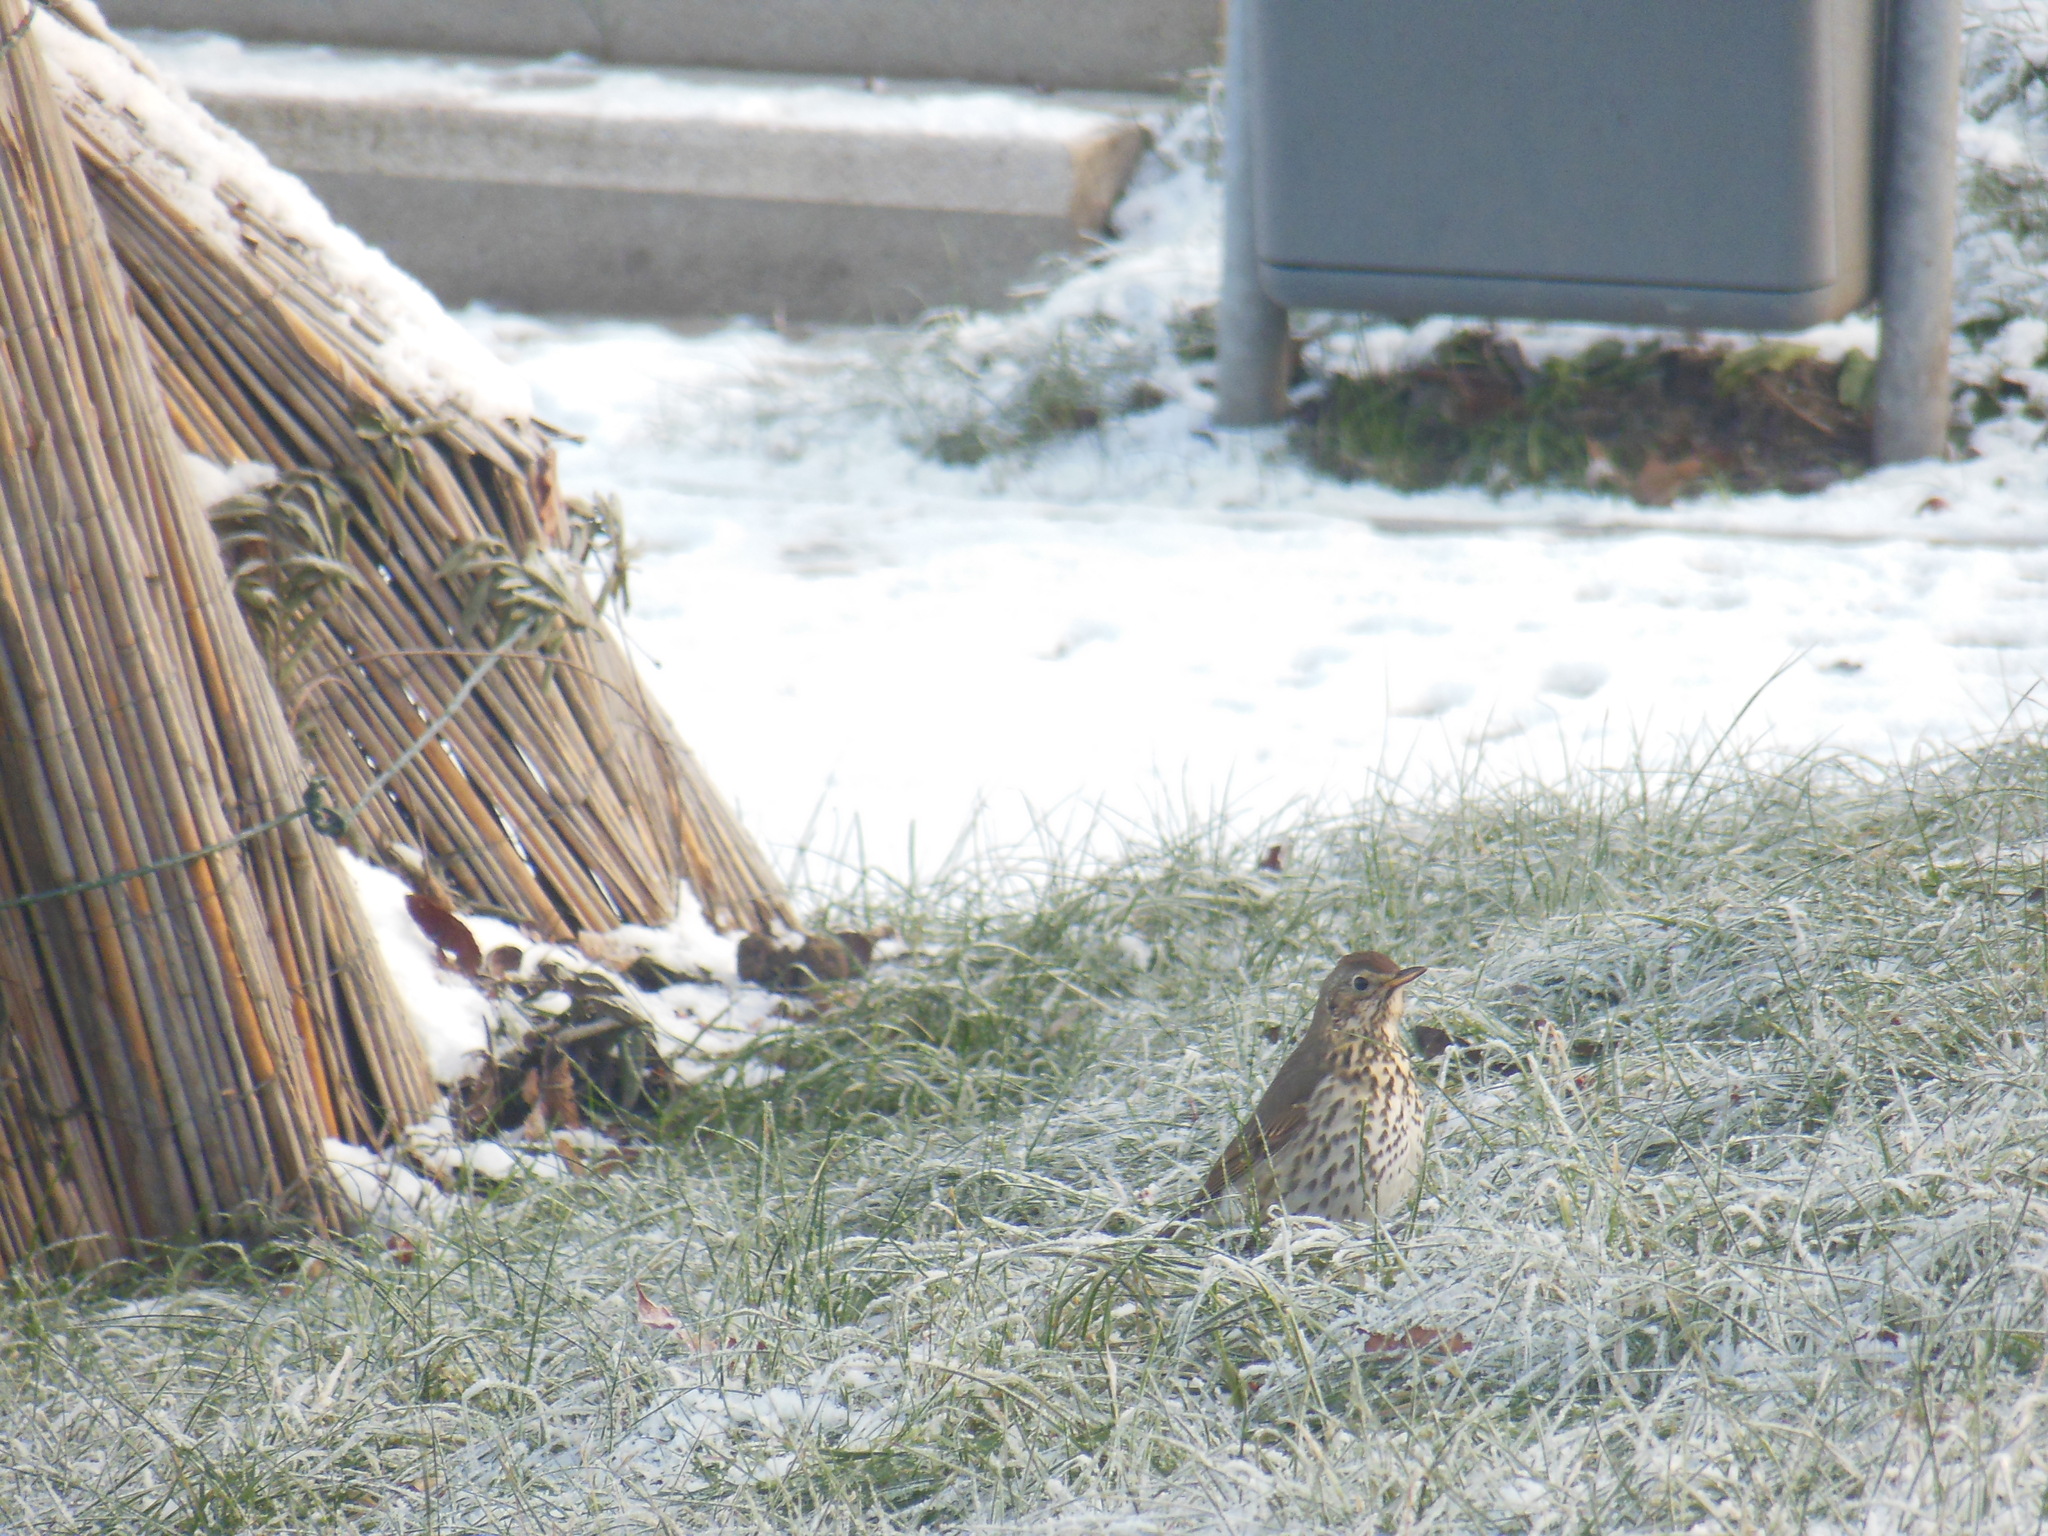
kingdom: Animalia
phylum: Chordata
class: Aves
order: Passeriformes
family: Turdidae
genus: Turdus
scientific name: Turdus philomelos
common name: Song thrush
